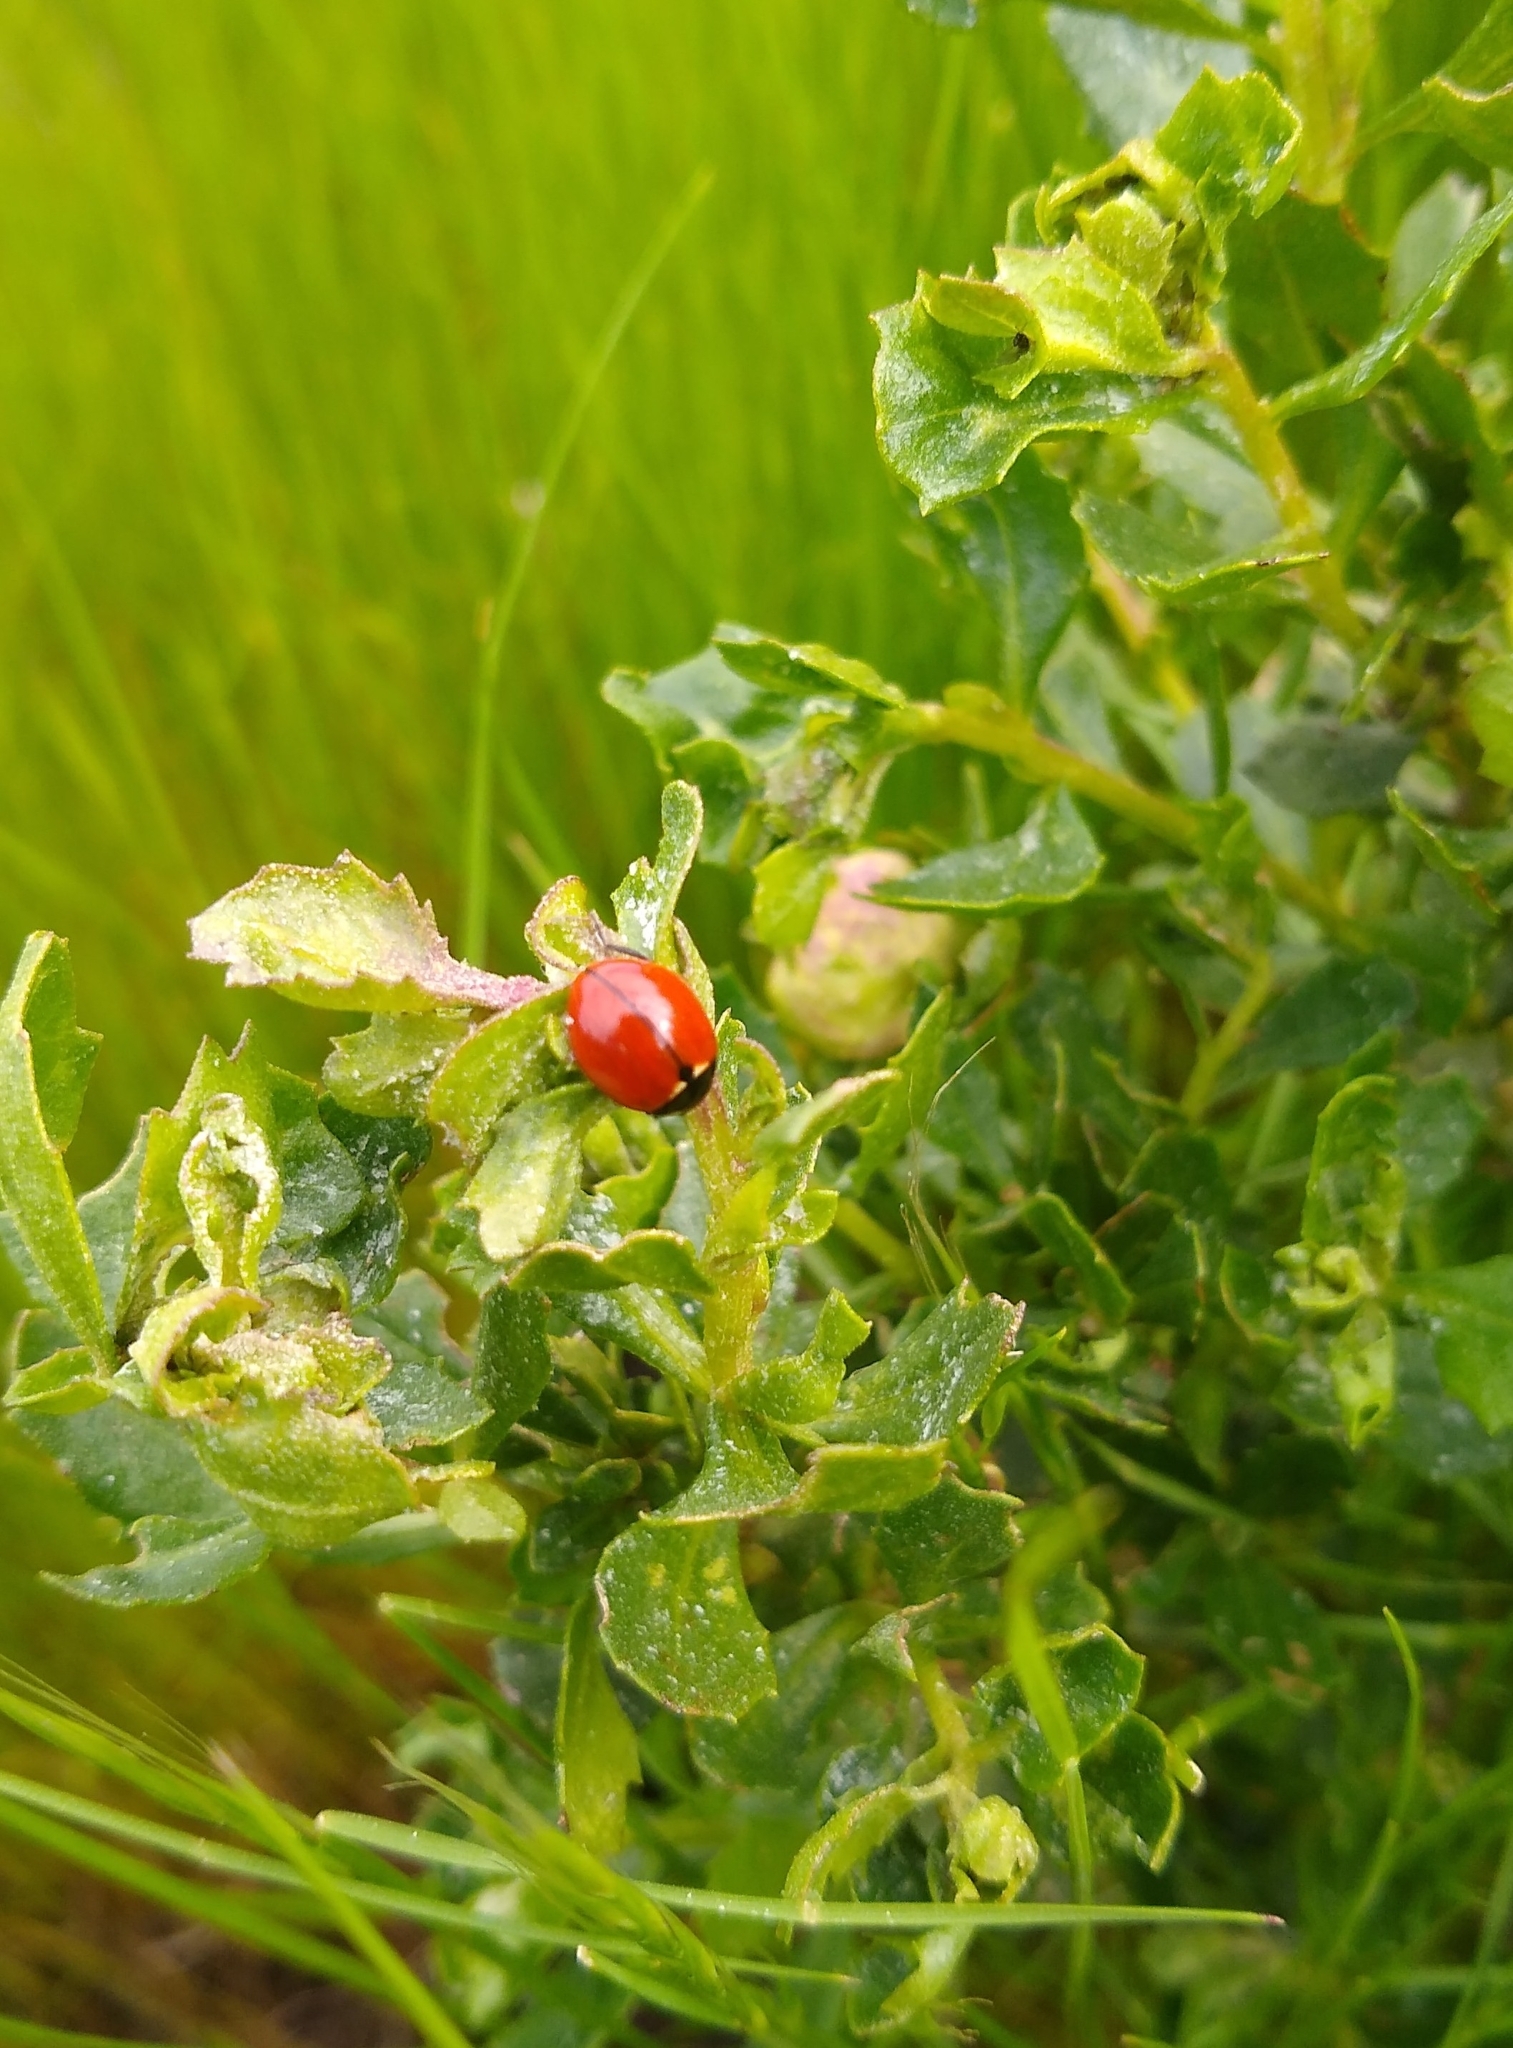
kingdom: Animalia
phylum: Arthropoda
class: Insecta
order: Coleoptera
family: Coccinellidae
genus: Coccinella
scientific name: Coccinella californica
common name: Lady beetle
